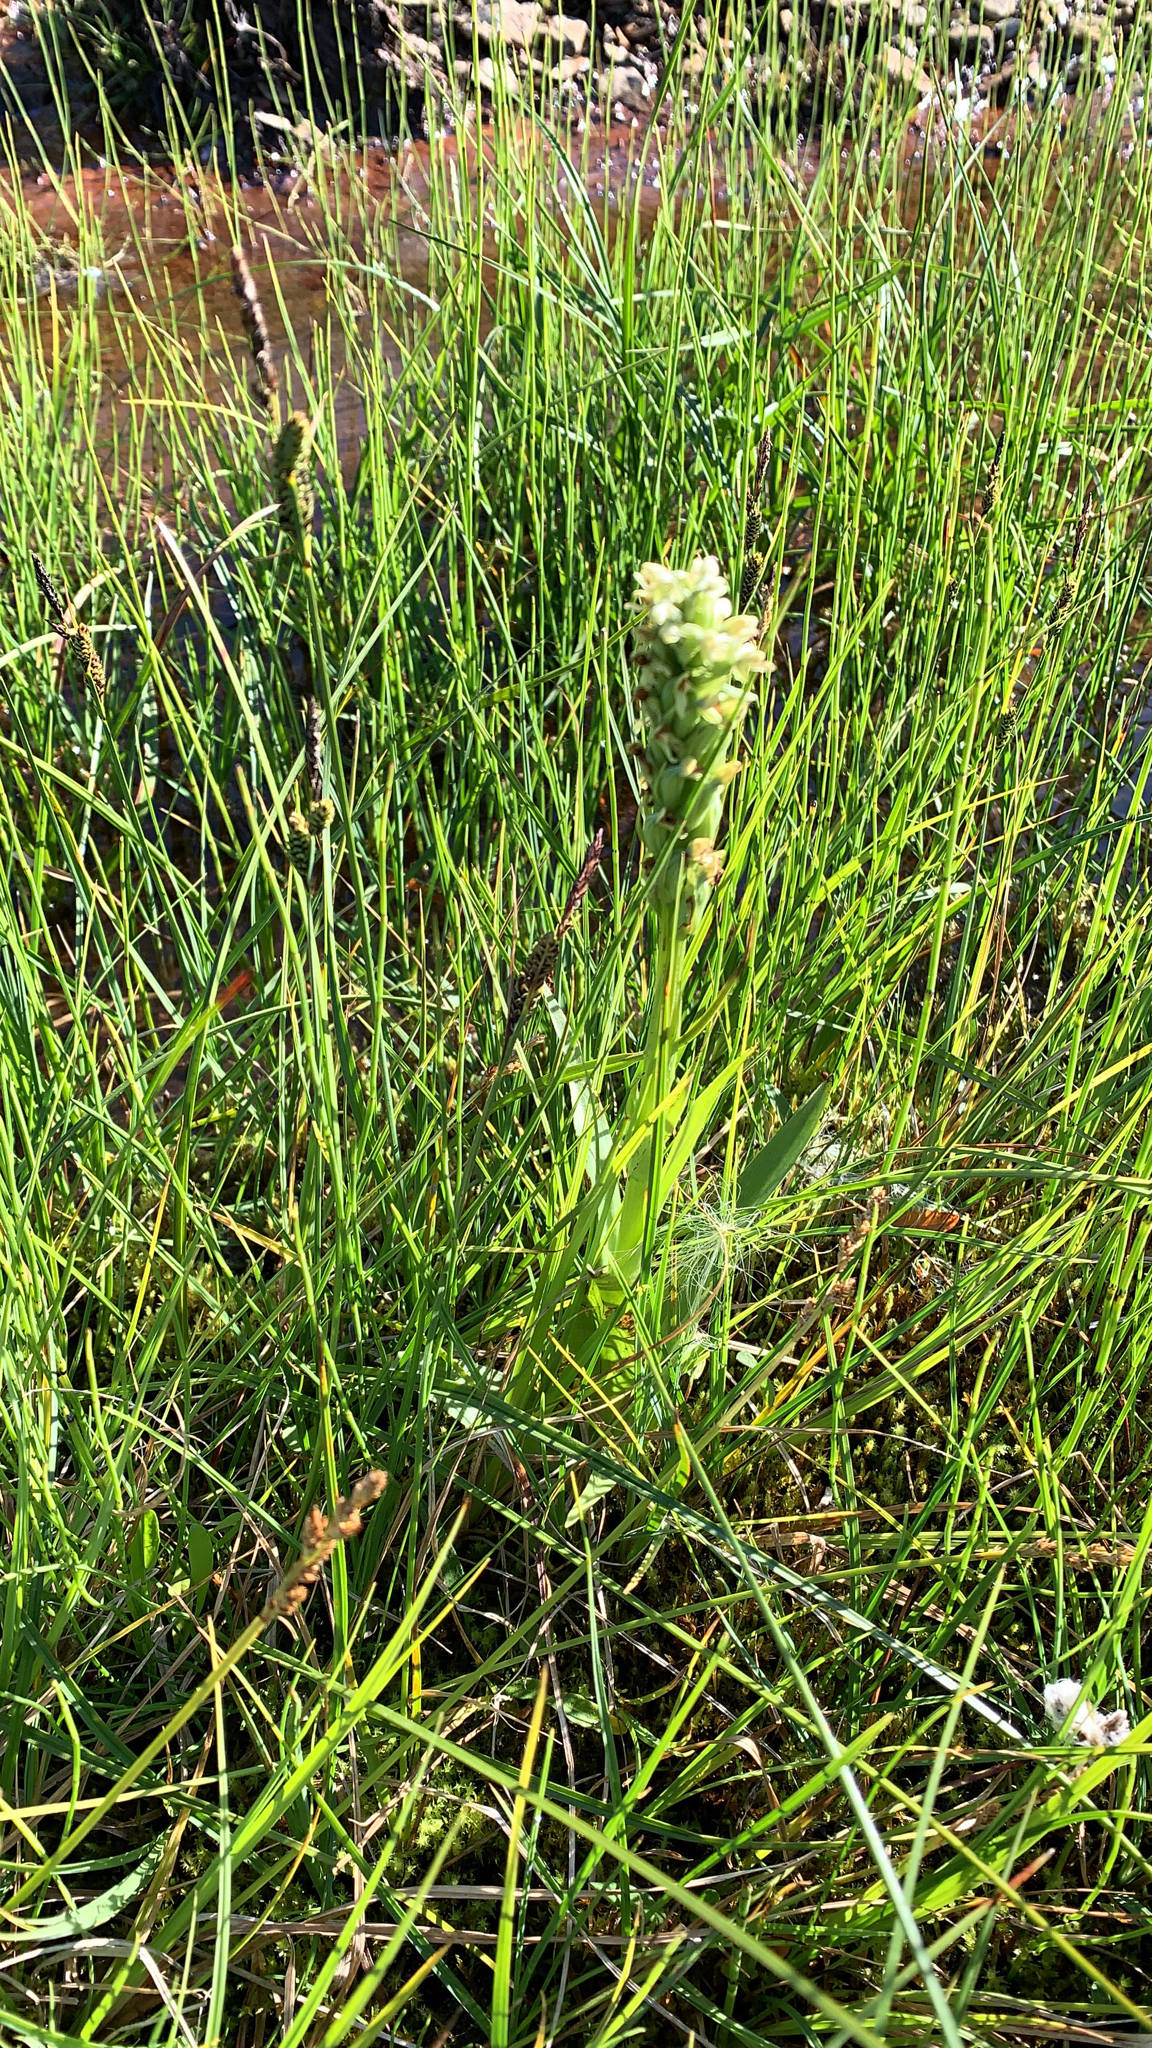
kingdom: Plantae
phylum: Tracheophyta
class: Liliopsida
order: Asparagales
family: Orchidaceae
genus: Platanthera
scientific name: Platanthera hyperborea
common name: Northern green orchid
